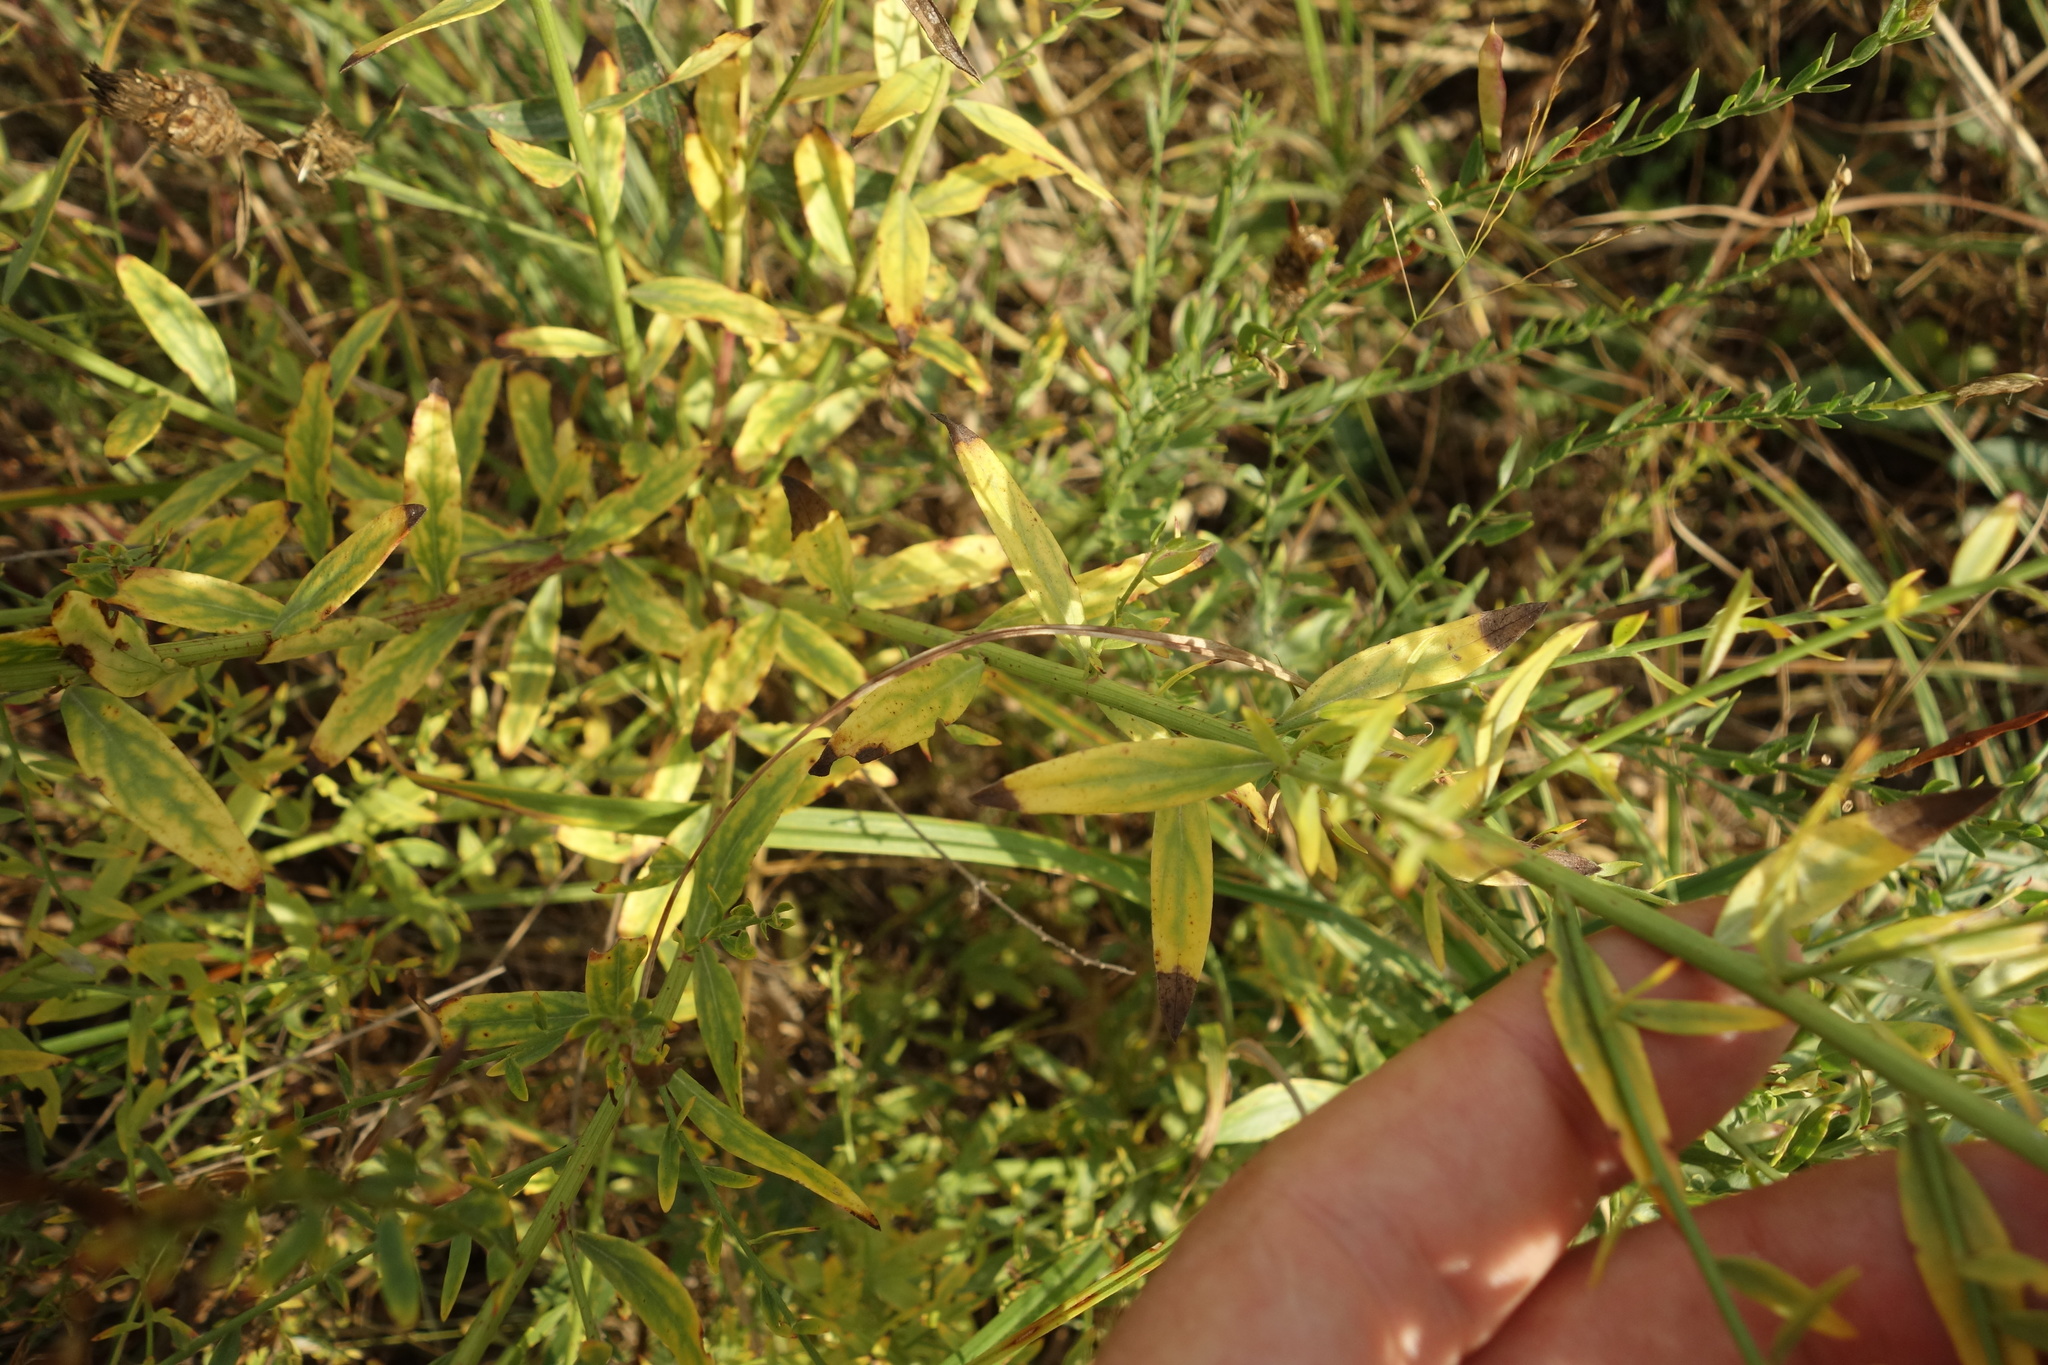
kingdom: Plantae
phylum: Tracheophyta
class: Magnoliopsida
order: Fabales
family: Fabaceae
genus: Genista
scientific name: Genista tinctoria
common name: Dyer's greenweed
